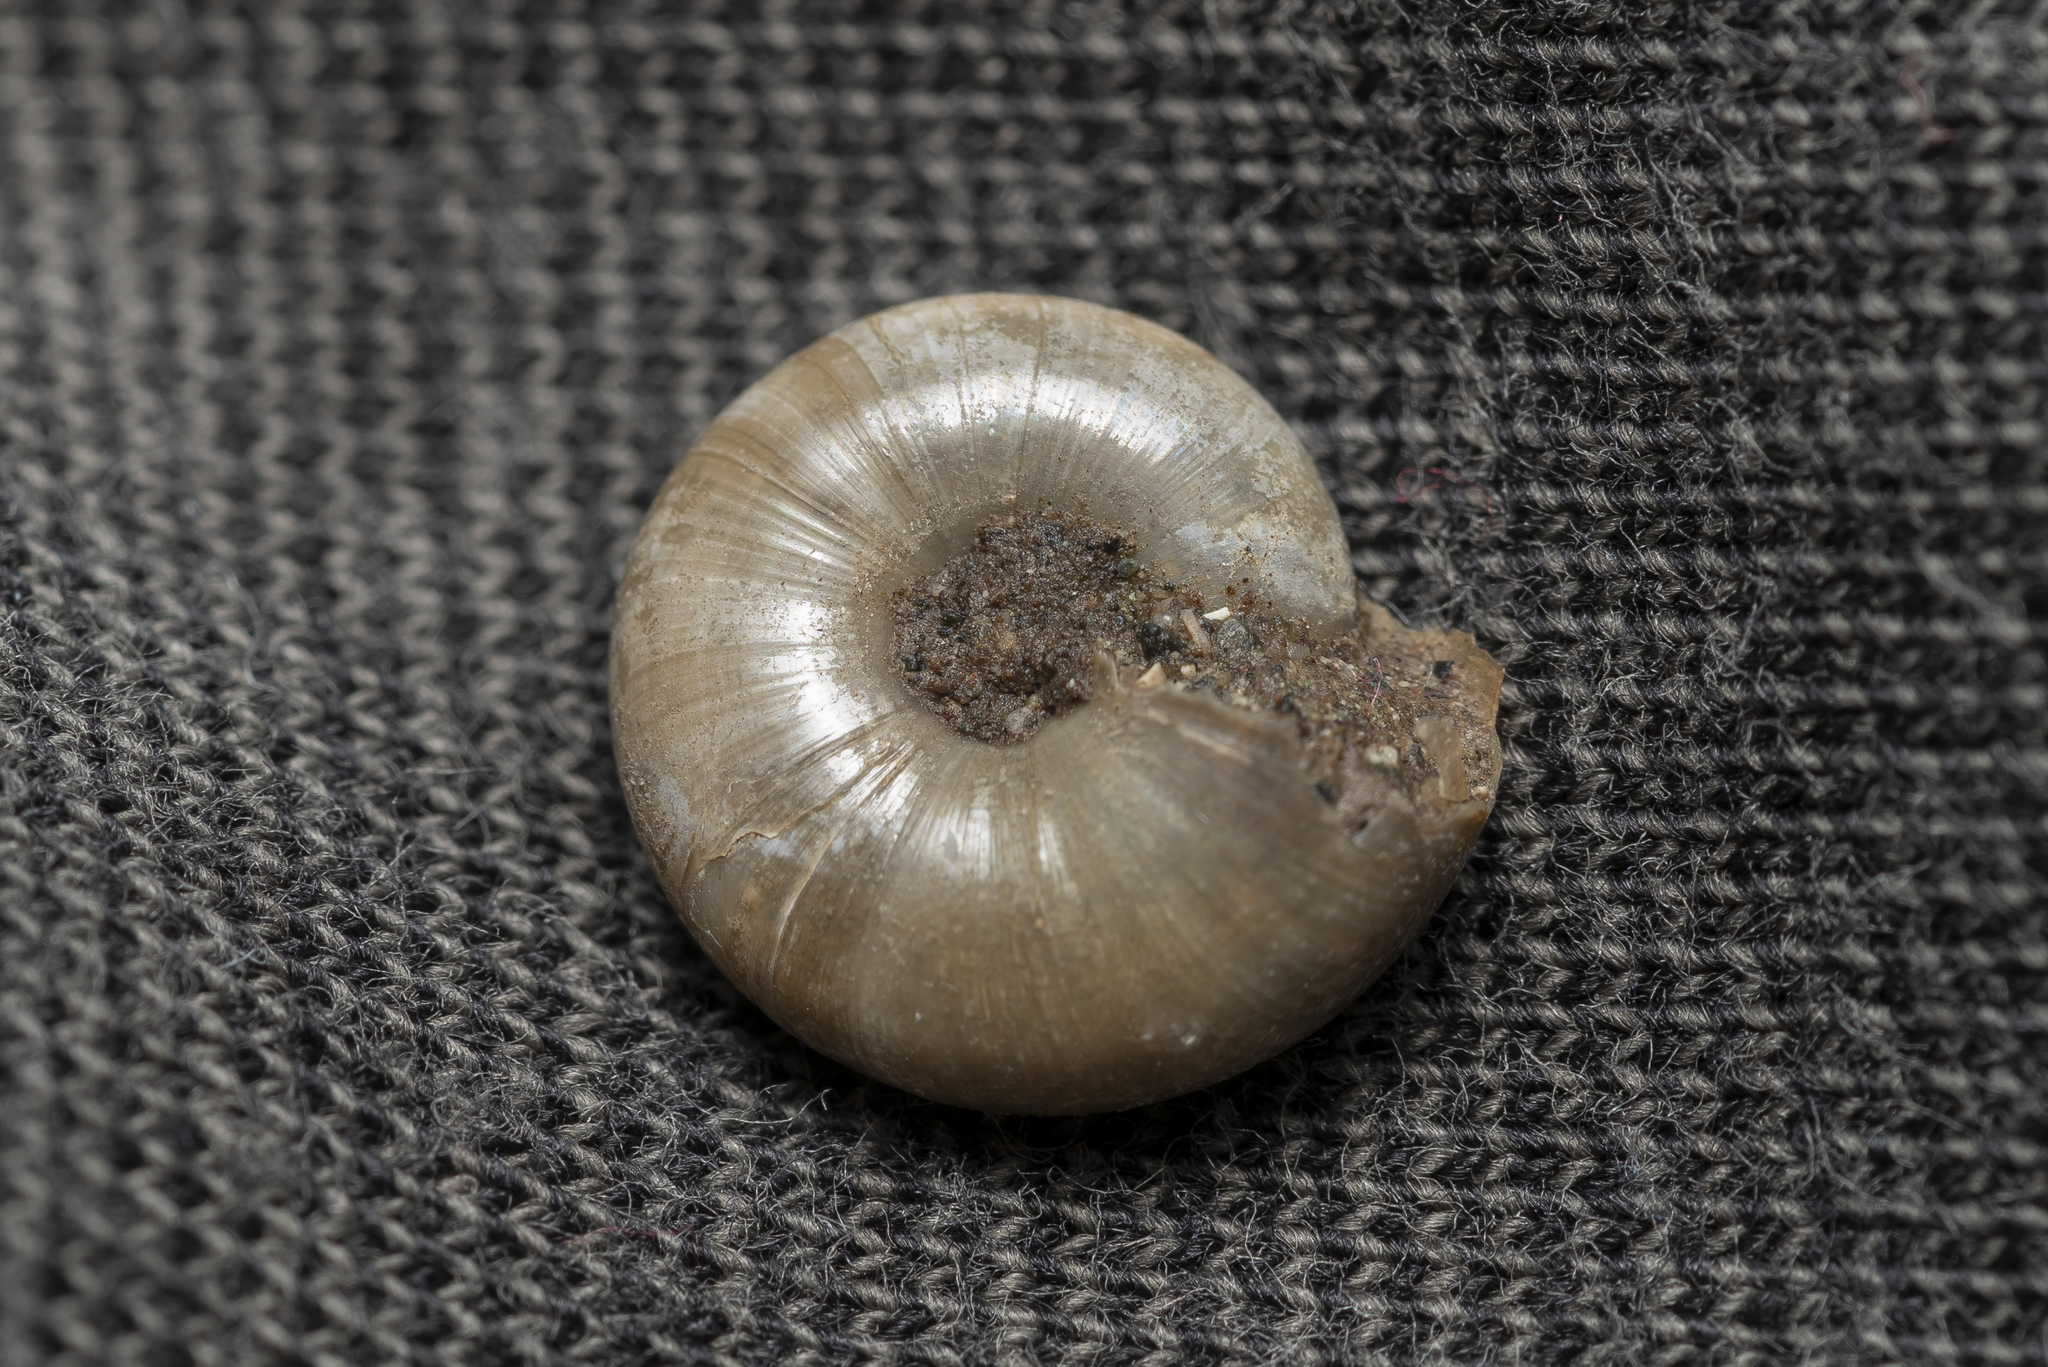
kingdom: Animalia
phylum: Mollusca
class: Gastropoda
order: Stylommatophora
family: Oxychilidae
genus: Oxychilus
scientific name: Oxychilus cyprius
